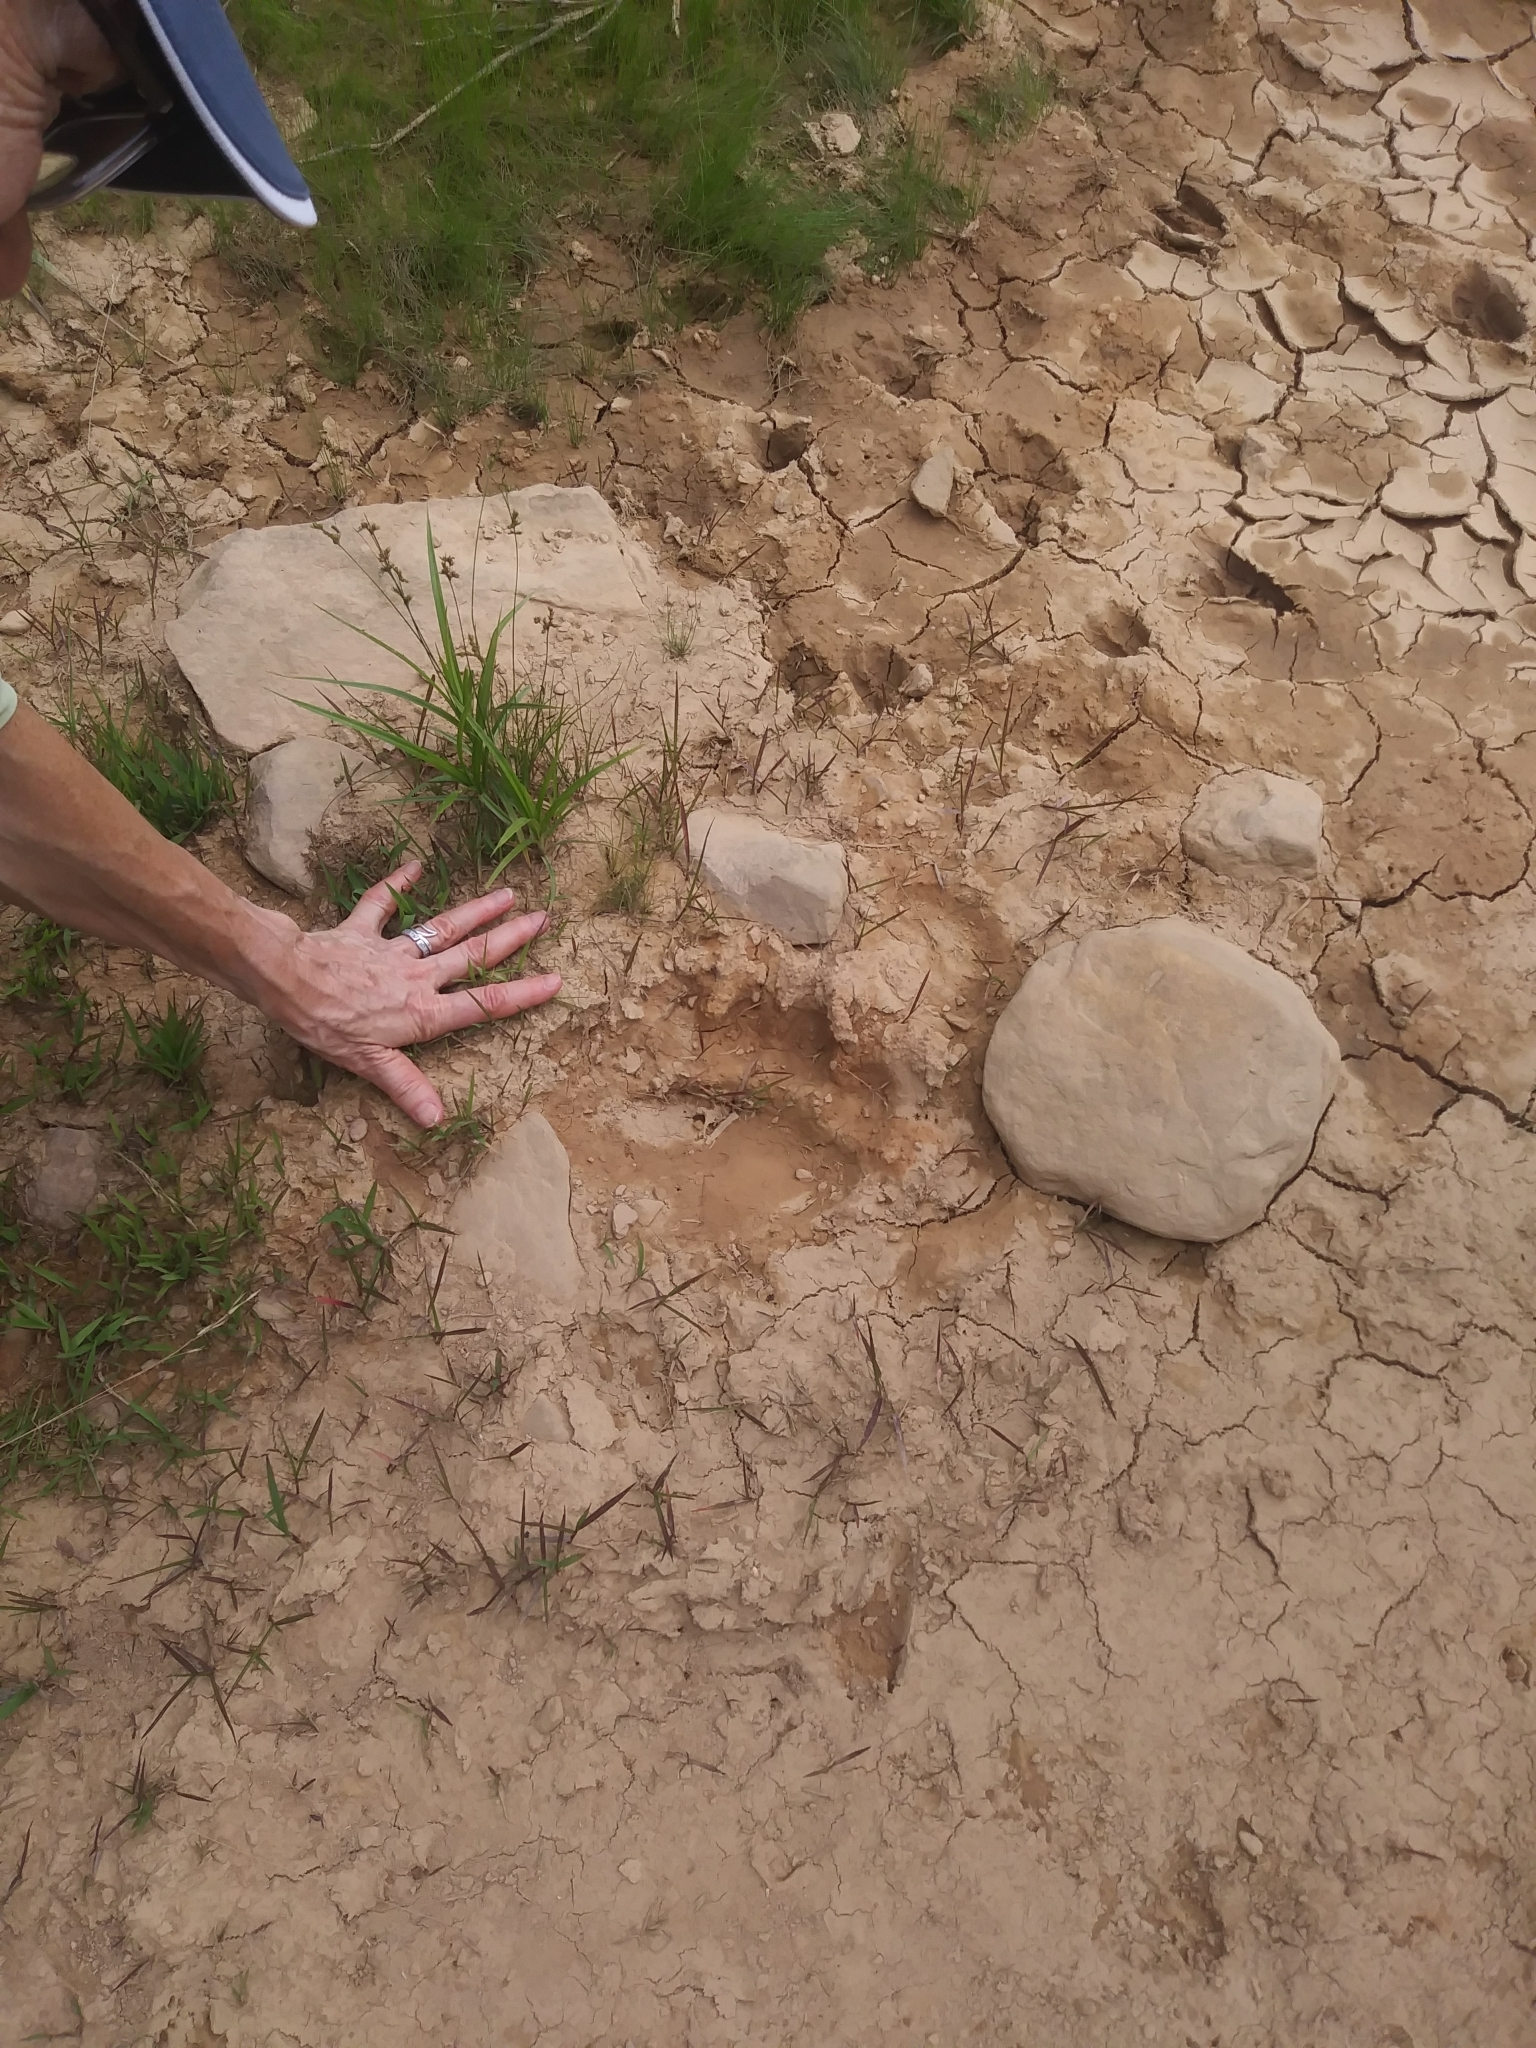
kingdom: Animalia
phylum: Chordata
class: Mammalia
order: Carnivora
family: Ursidae
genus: Ursus
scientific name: Ursus americanus
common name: American black bear
